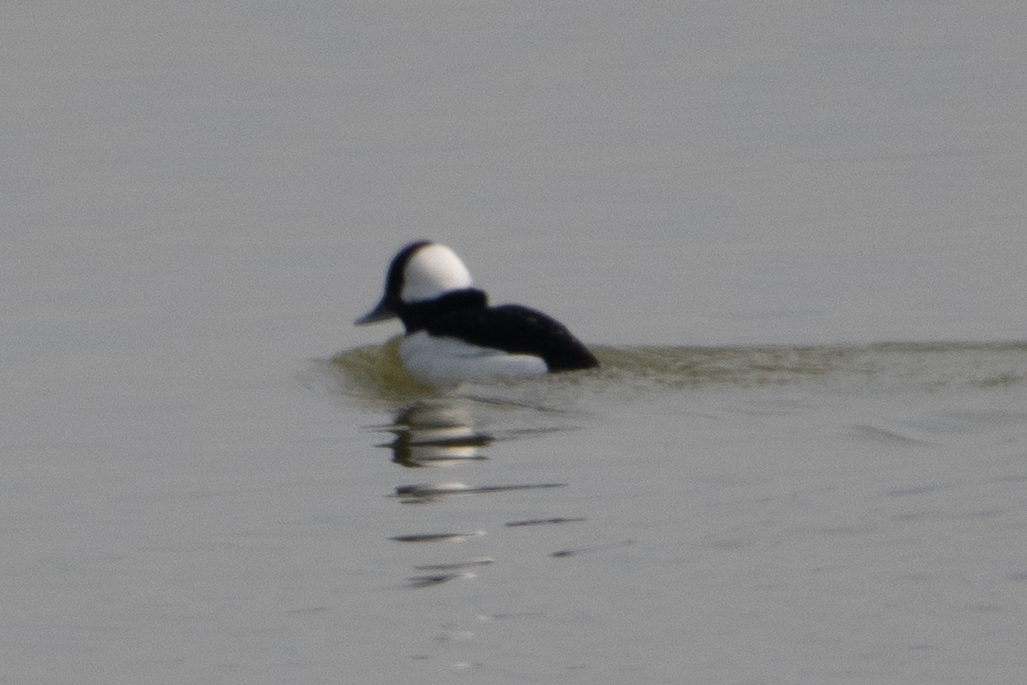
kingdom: Animalia
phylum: Chordata
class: Aves
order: Anseriformes
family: Anatidae
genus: Bucephala
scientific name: Bucephala albeola
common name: Bufflehead
